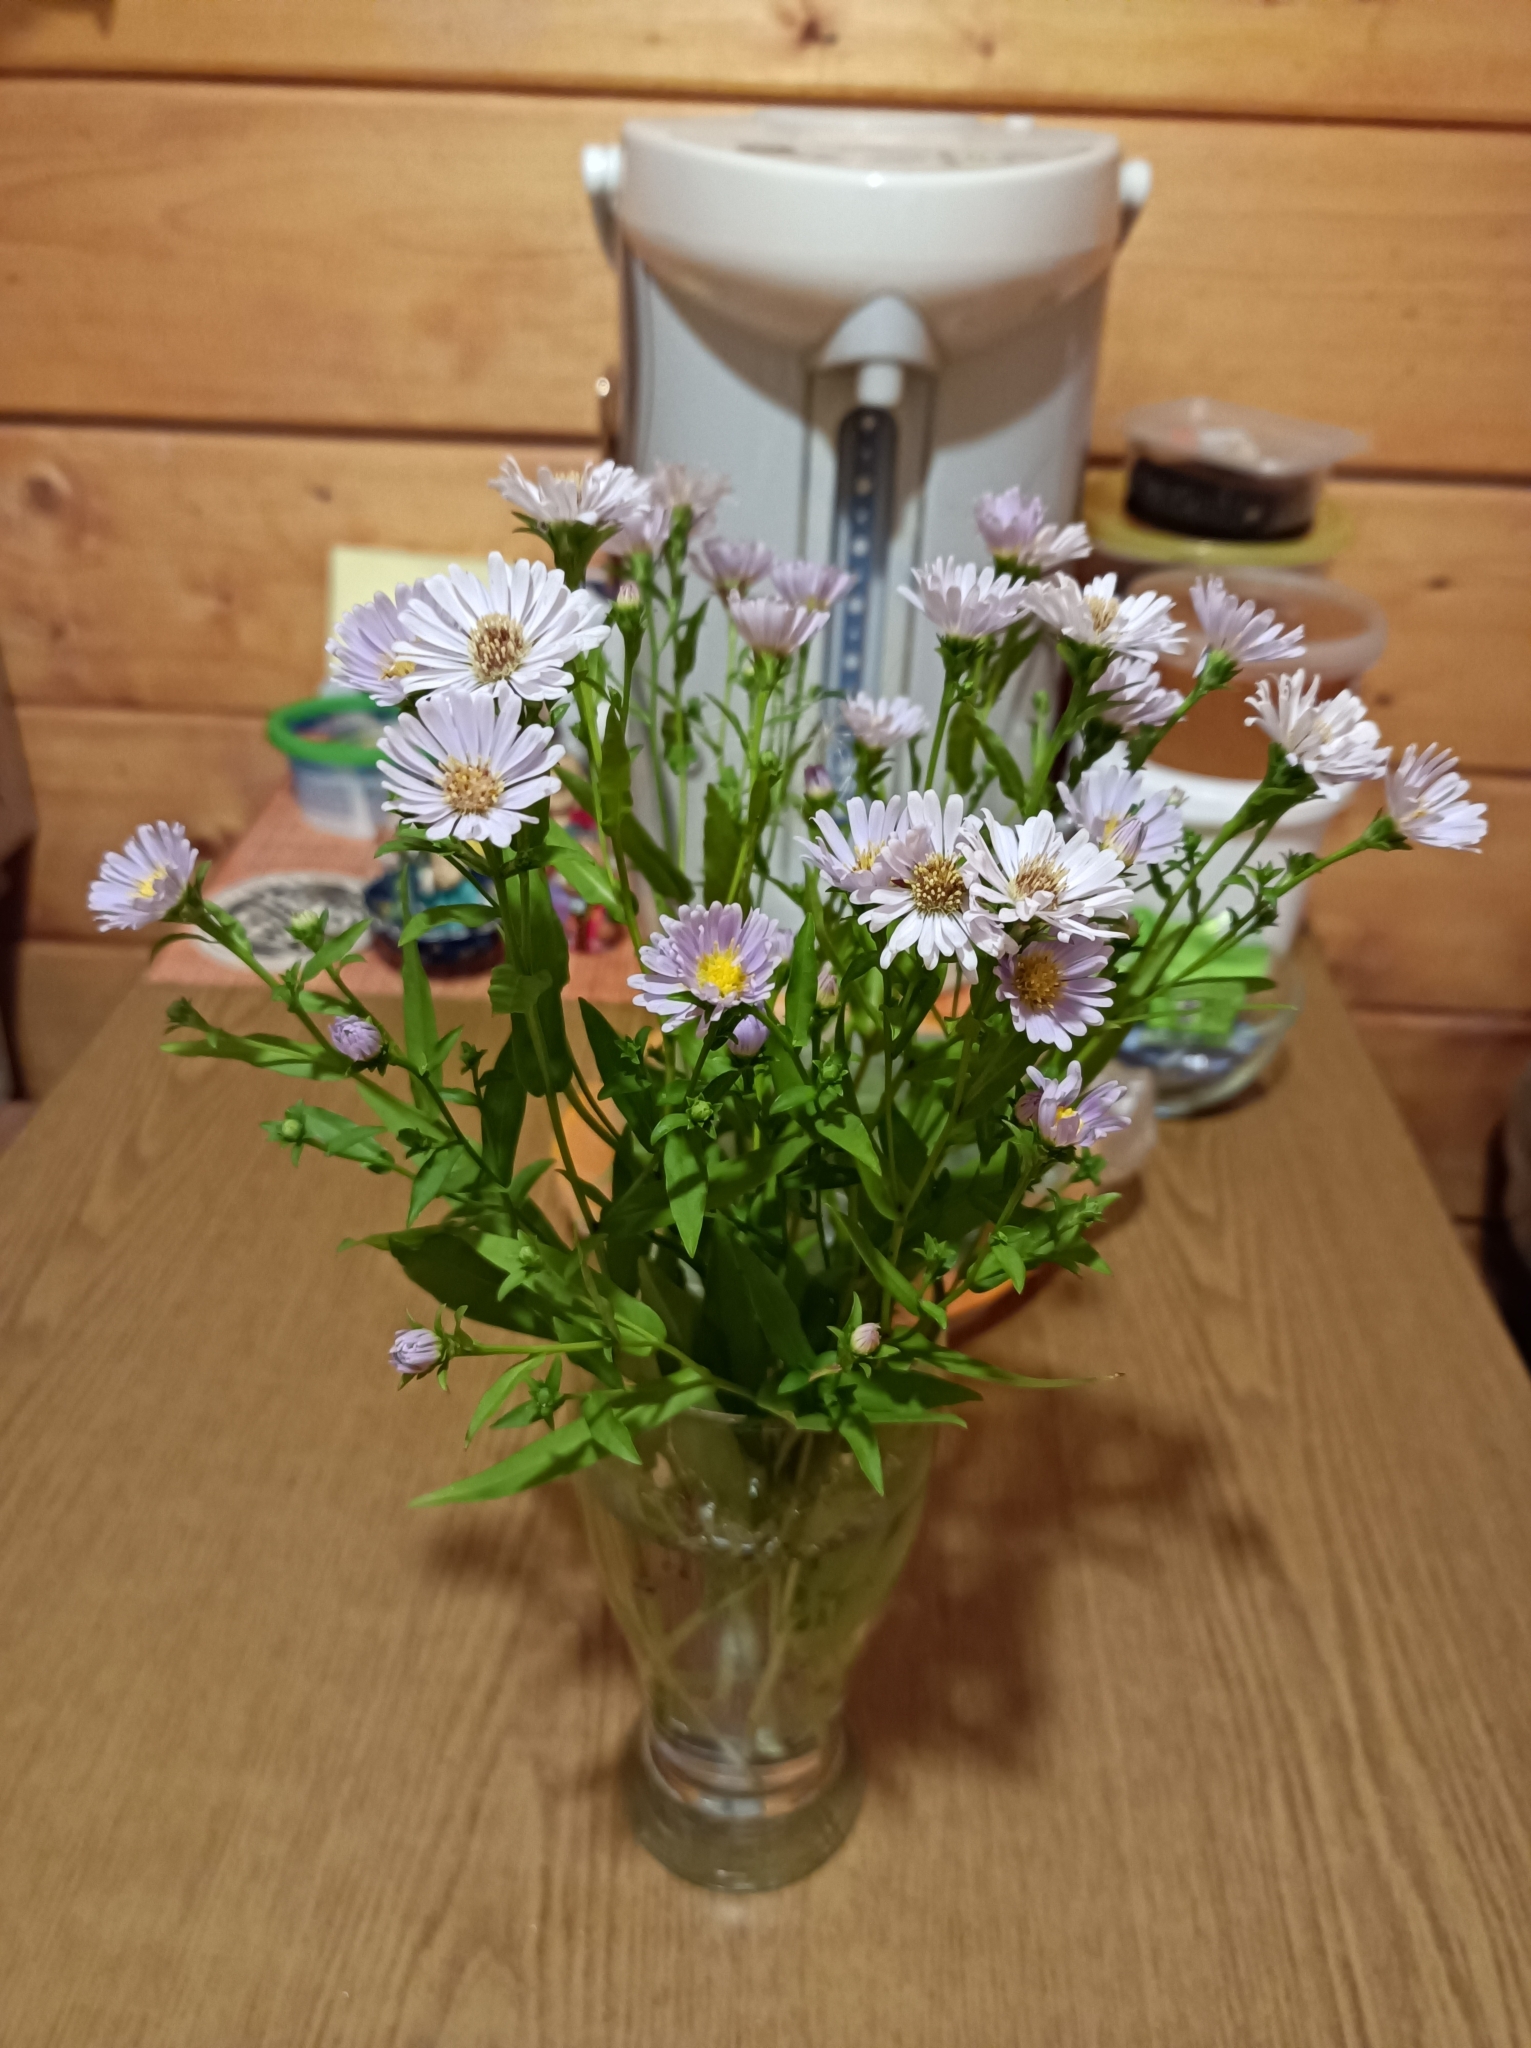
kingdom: Plantae
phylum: Tracheophyta
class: Magnoliopsida
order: Asterales
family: Asteraceae
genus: Symphyotrichum
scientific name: Symphyotrichum novi-belgii
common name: Michaelmas daisy
